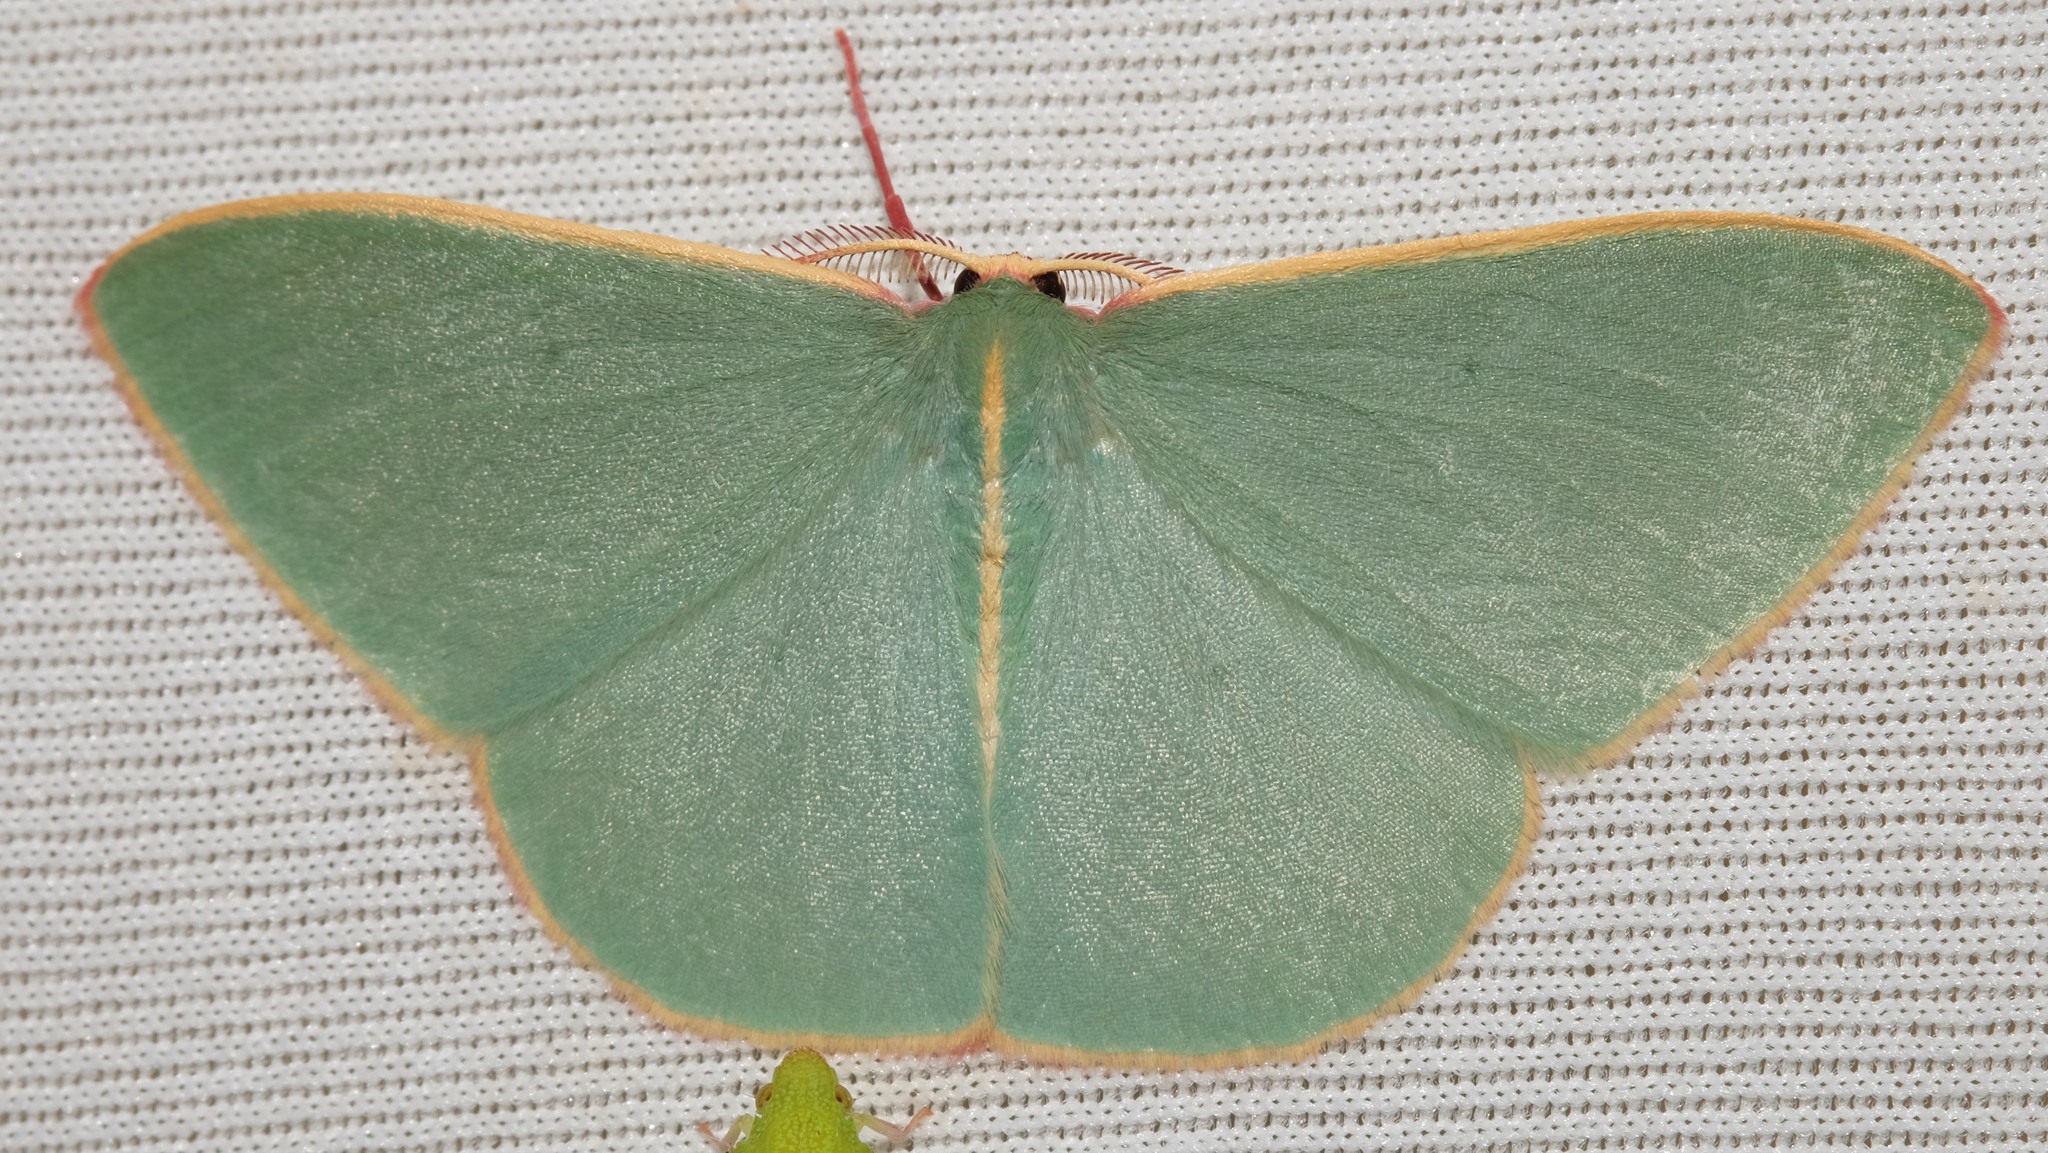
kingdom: Animalia
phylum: Arthropoda
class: Insecta
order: Lepidoptera
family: Geometridae
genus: Chlorocoma
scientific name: Chlorocoma assimilis
